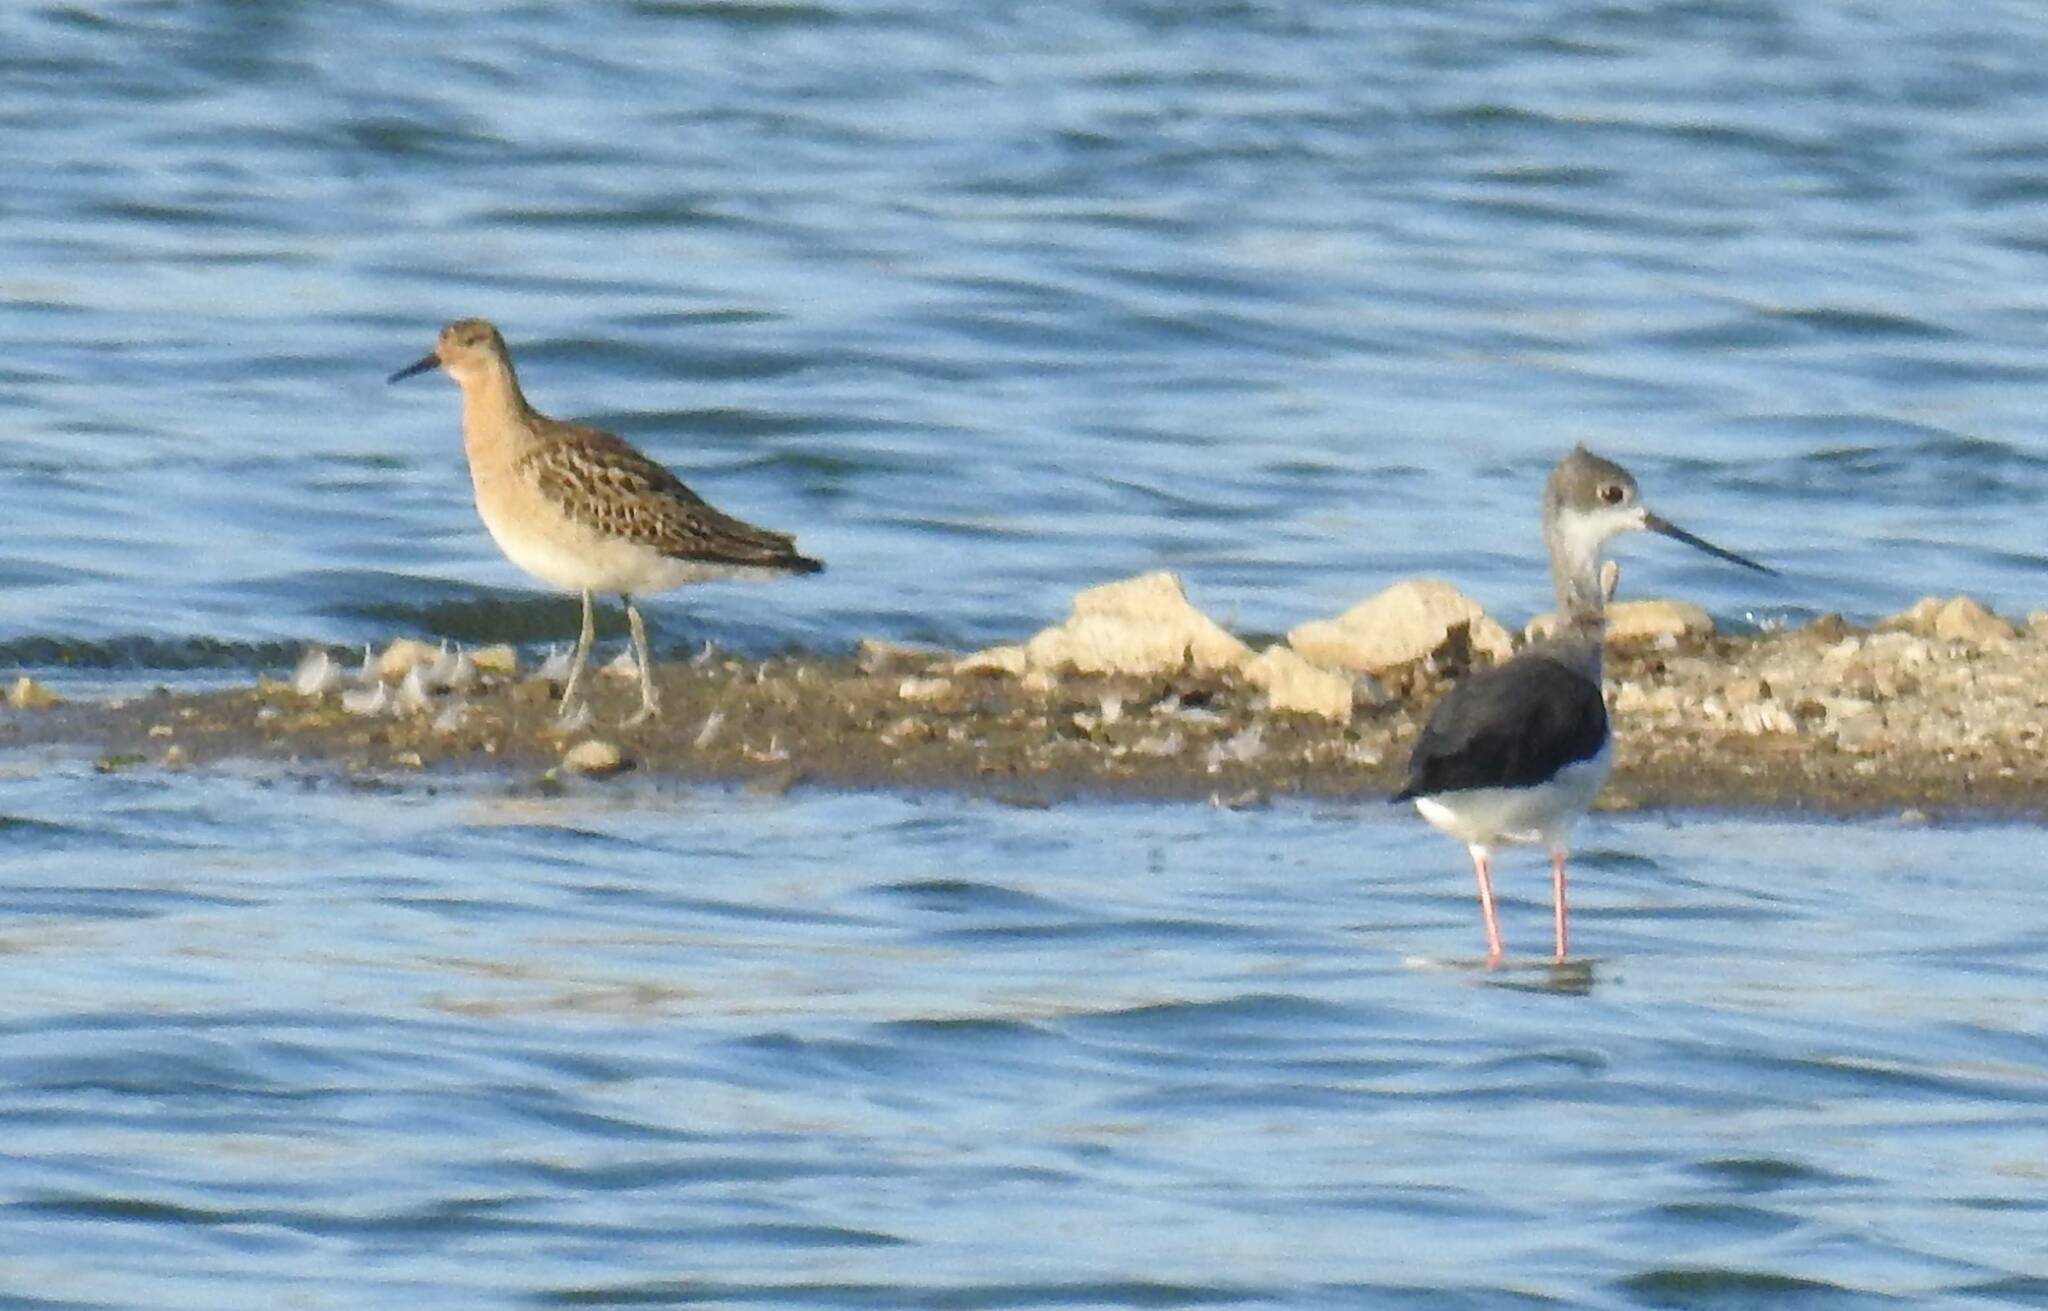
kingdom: Animalia
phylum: Chordata
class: Aves
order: Charadriiformes
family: Scolopacidae
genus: Calidris
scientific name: Calidris pugnax
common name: Ruff
